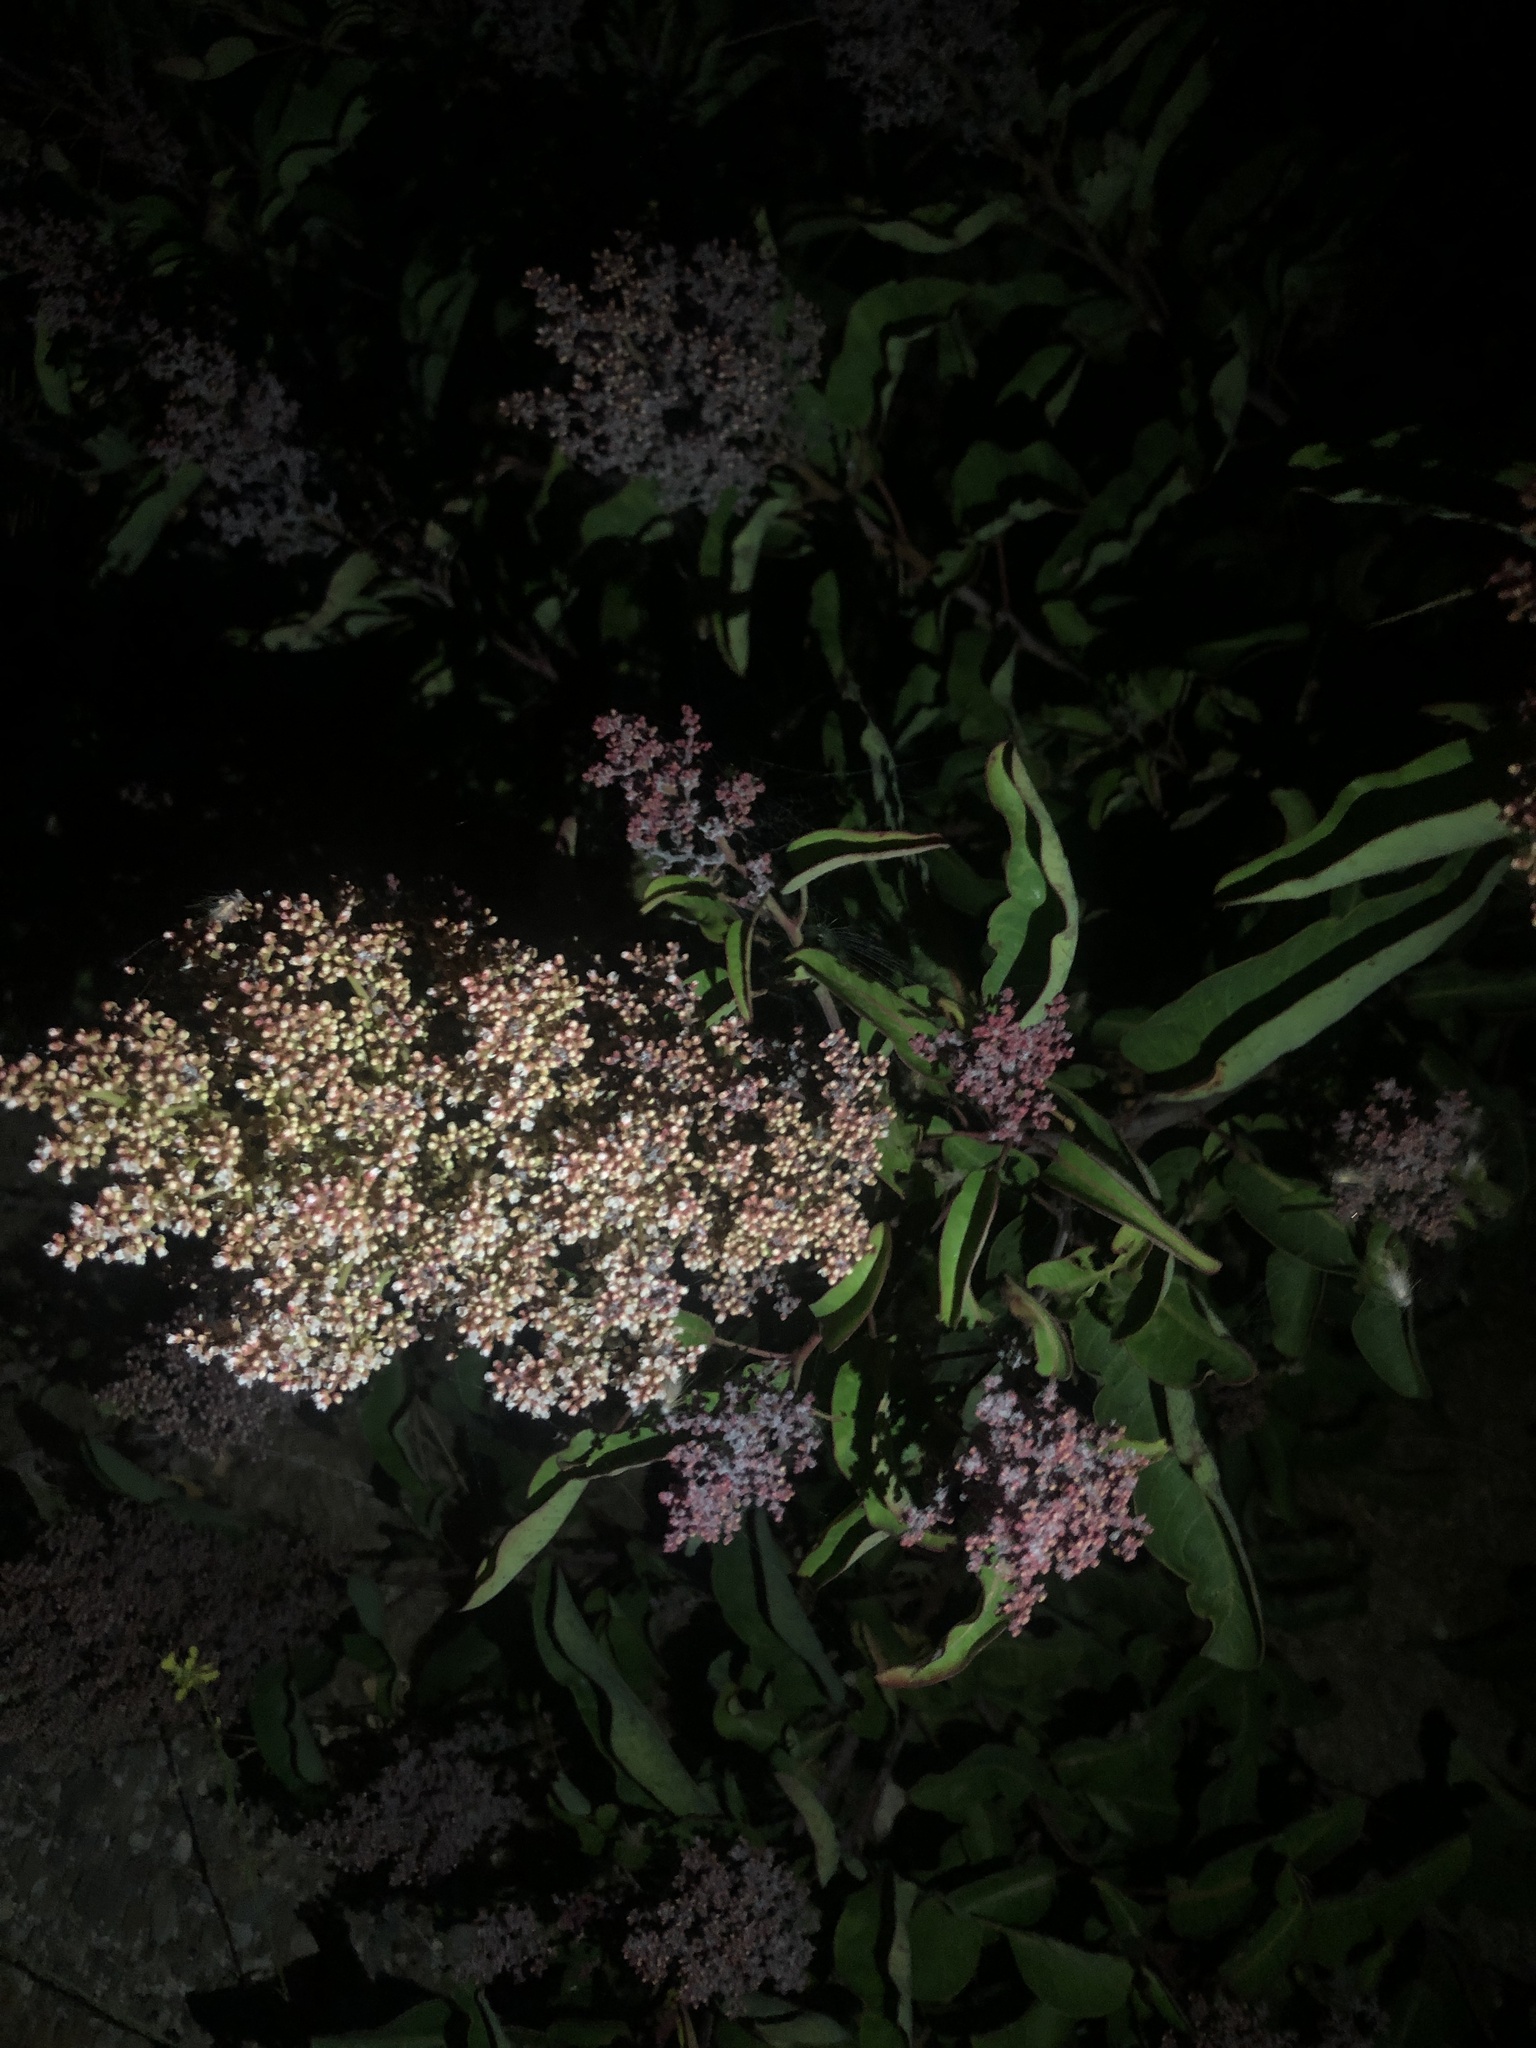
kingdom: Plantae
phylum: Tracheophyta
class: Magnoliopsida
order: Sapindales
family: Anacardiaceae
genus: Malosma
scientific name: Malosma laurina
